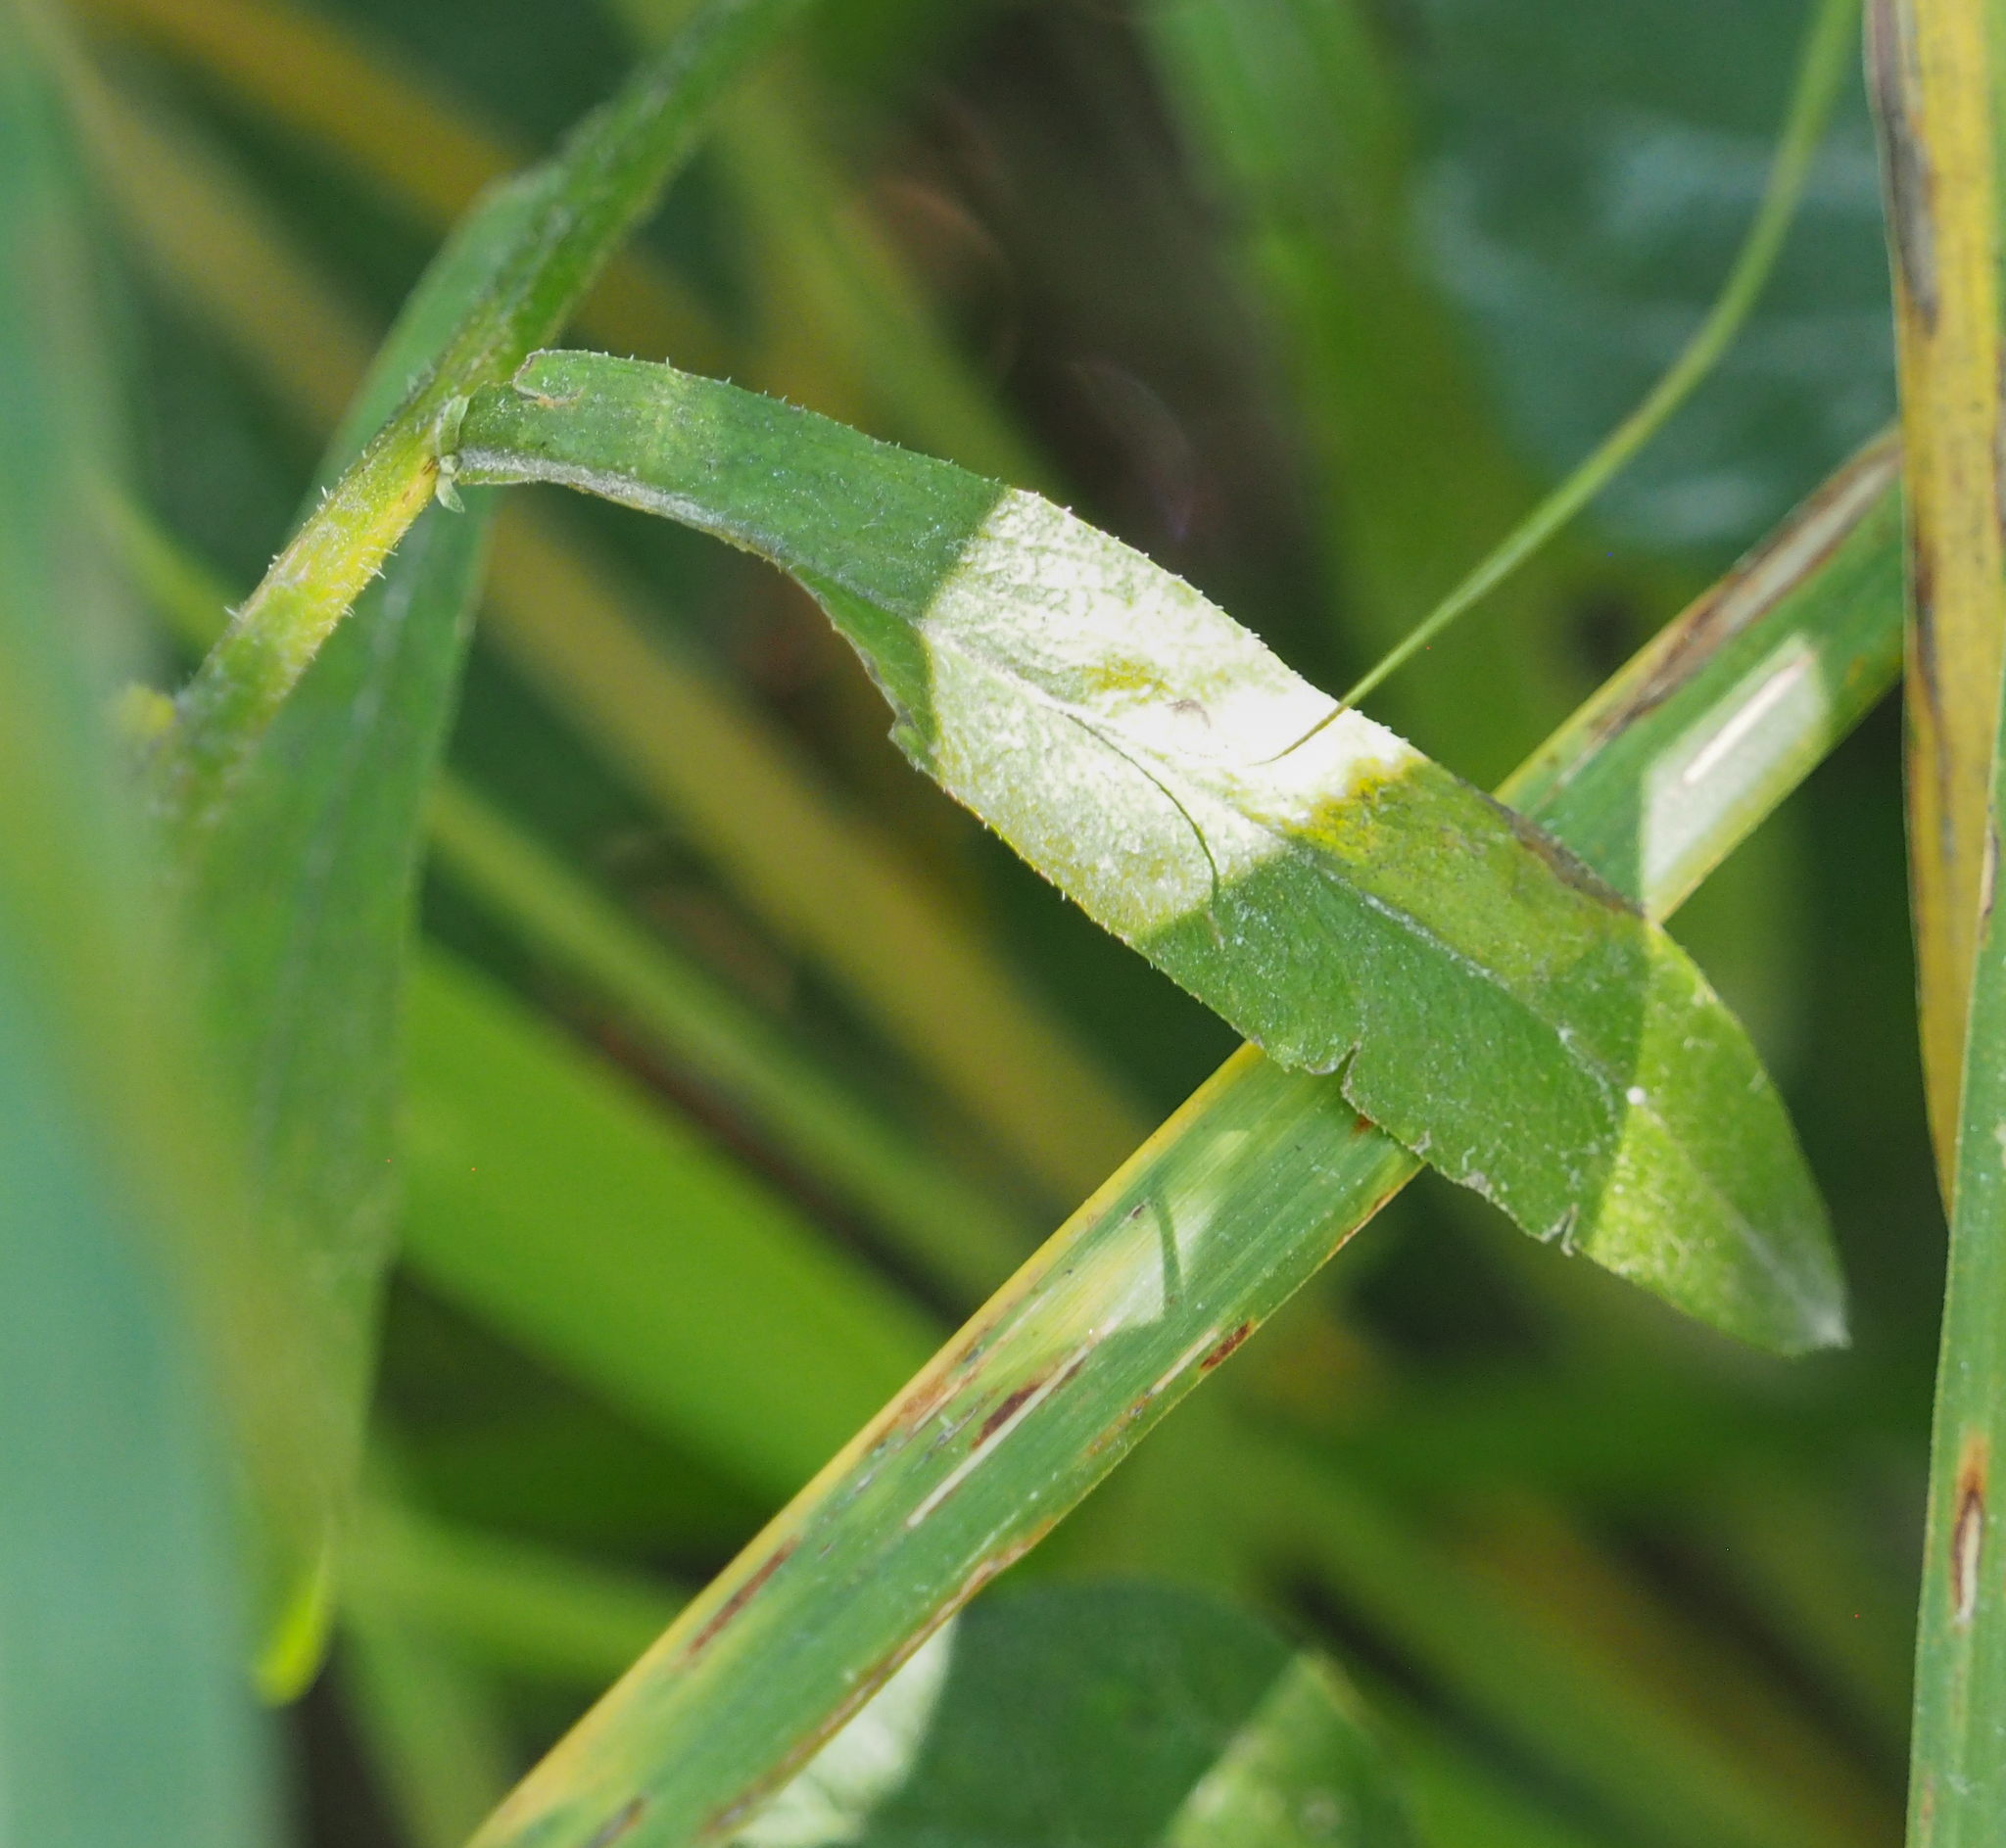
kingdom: Plantae
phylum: Tracheophyta
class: Magnoliopsida
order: Asterales
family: Asteraceae
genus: Erigeron
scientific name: Erigeron strigosus
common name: Common eastern fleabane
